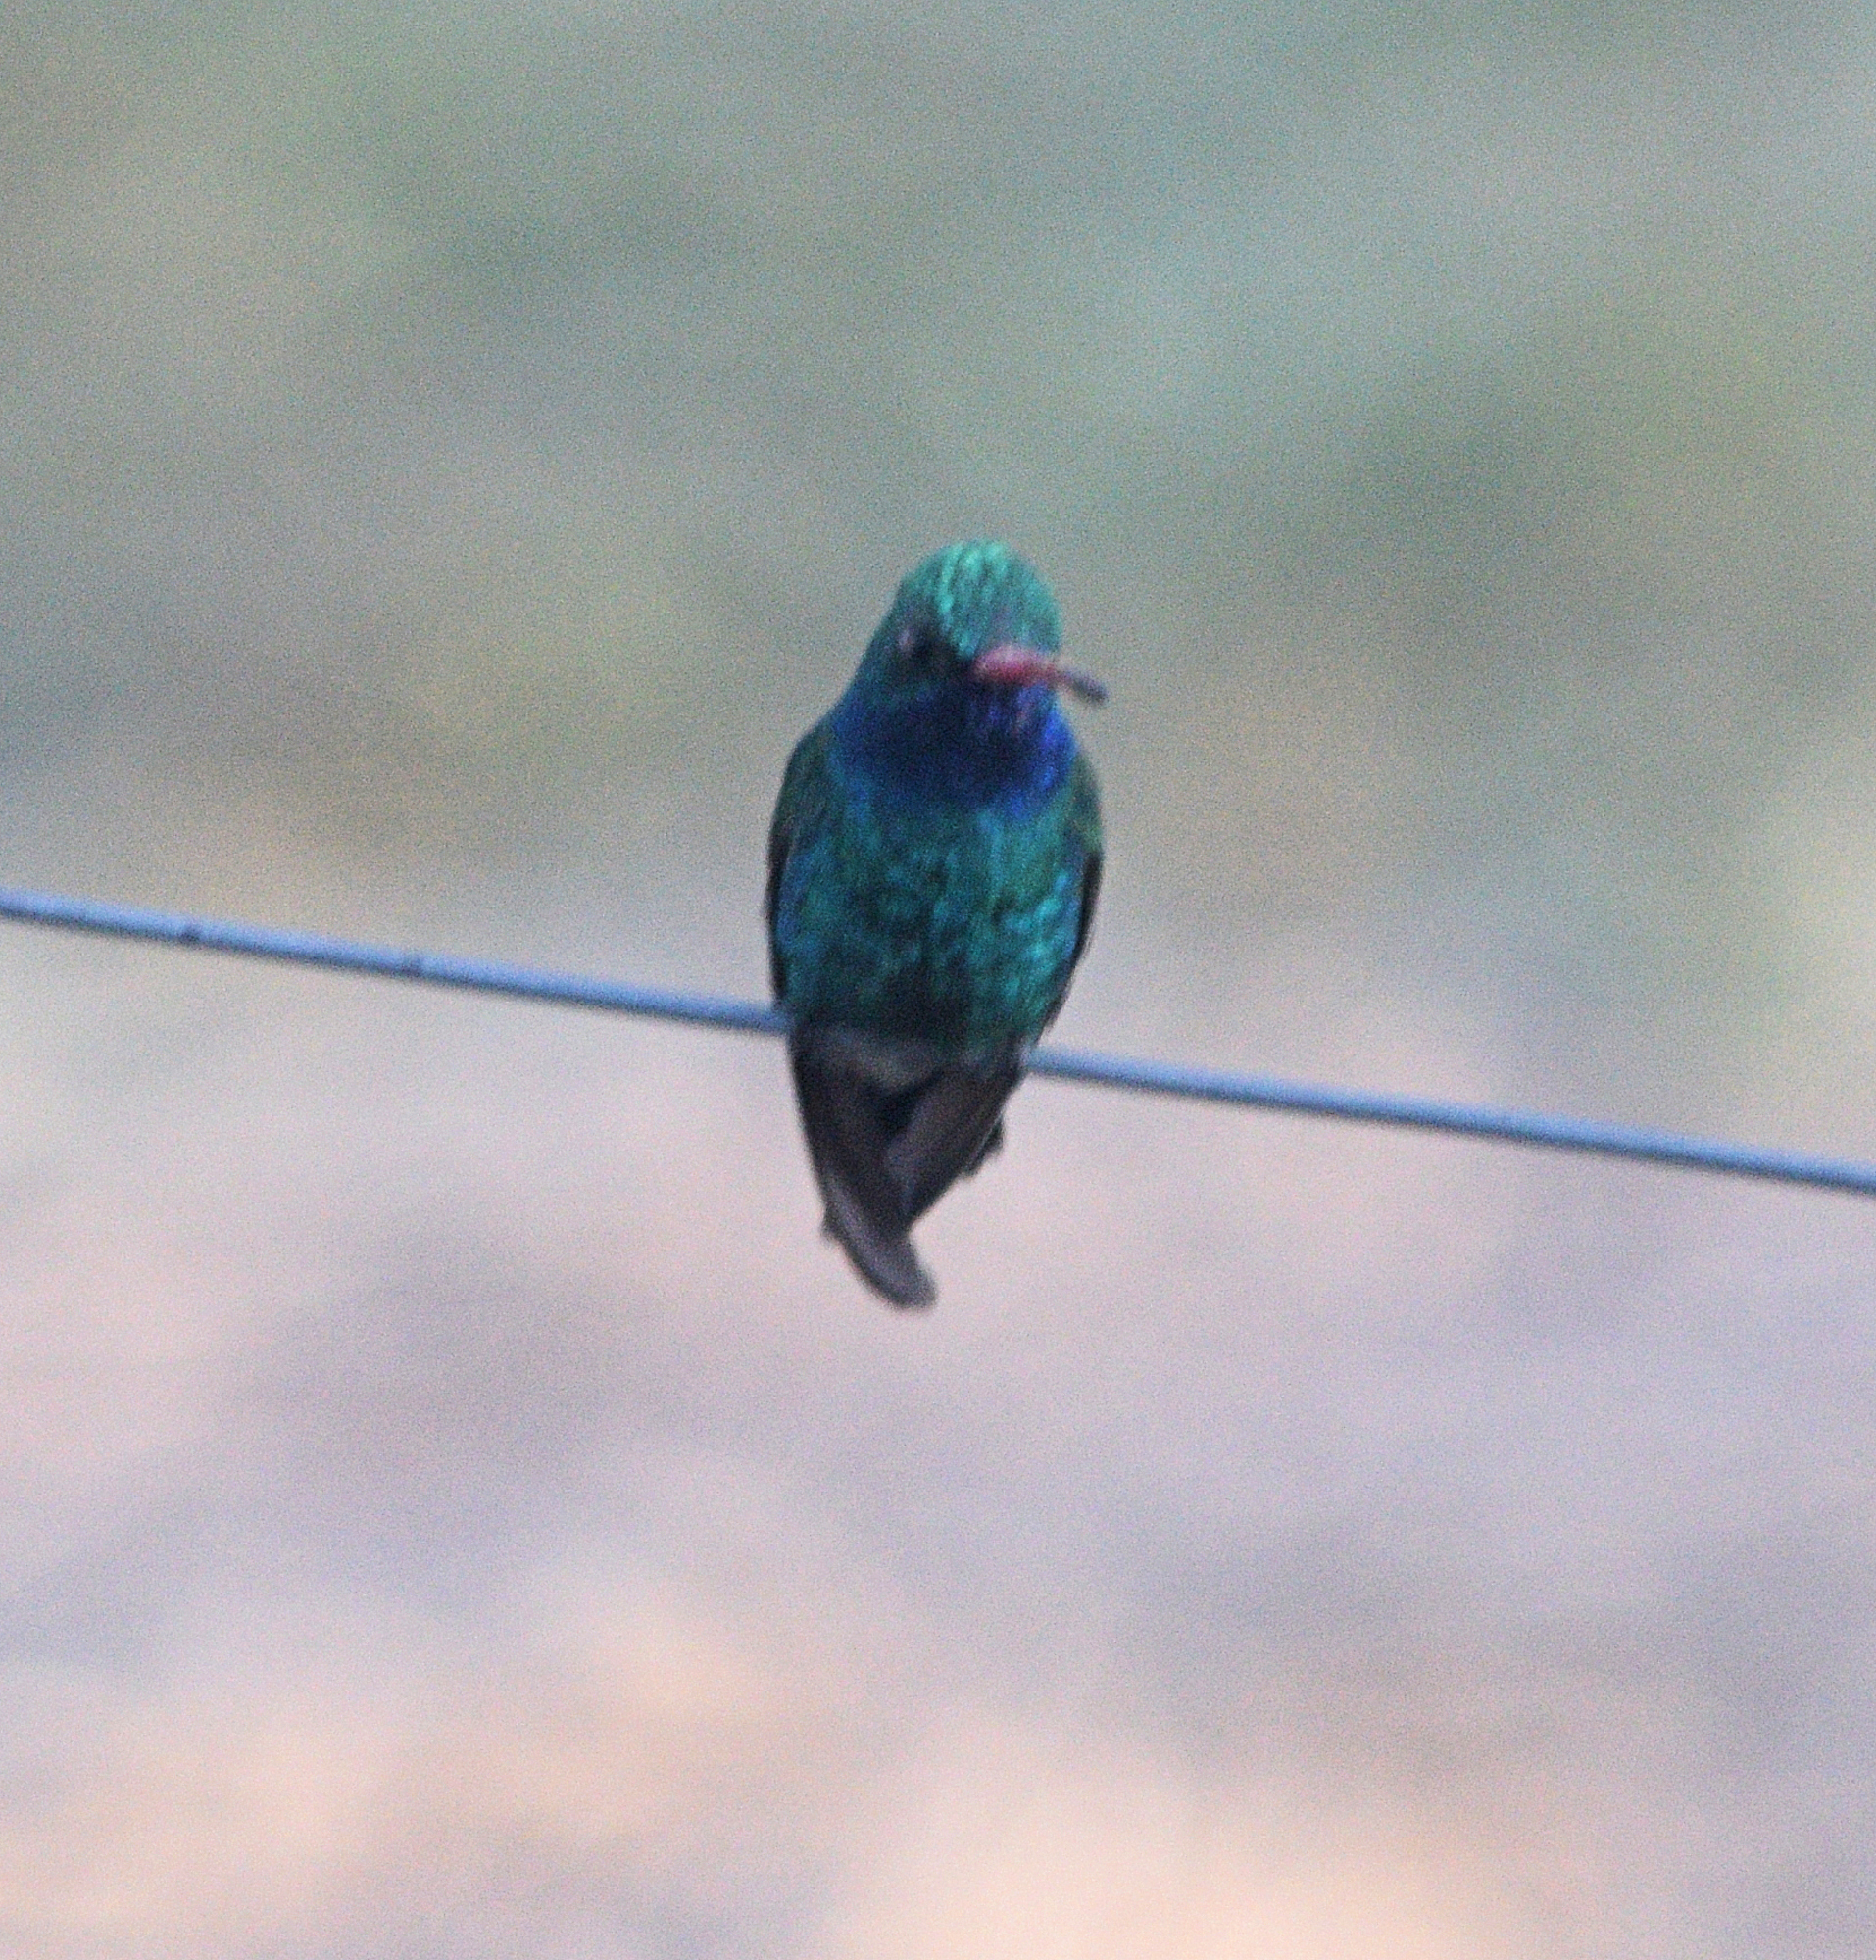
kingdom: Animalia
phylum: Chordata
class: Aves
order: Apodiformes
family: Trochilidae
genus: Cynanthus
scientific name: Cynanthus latirostris
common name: Broad-billed hummingbird
